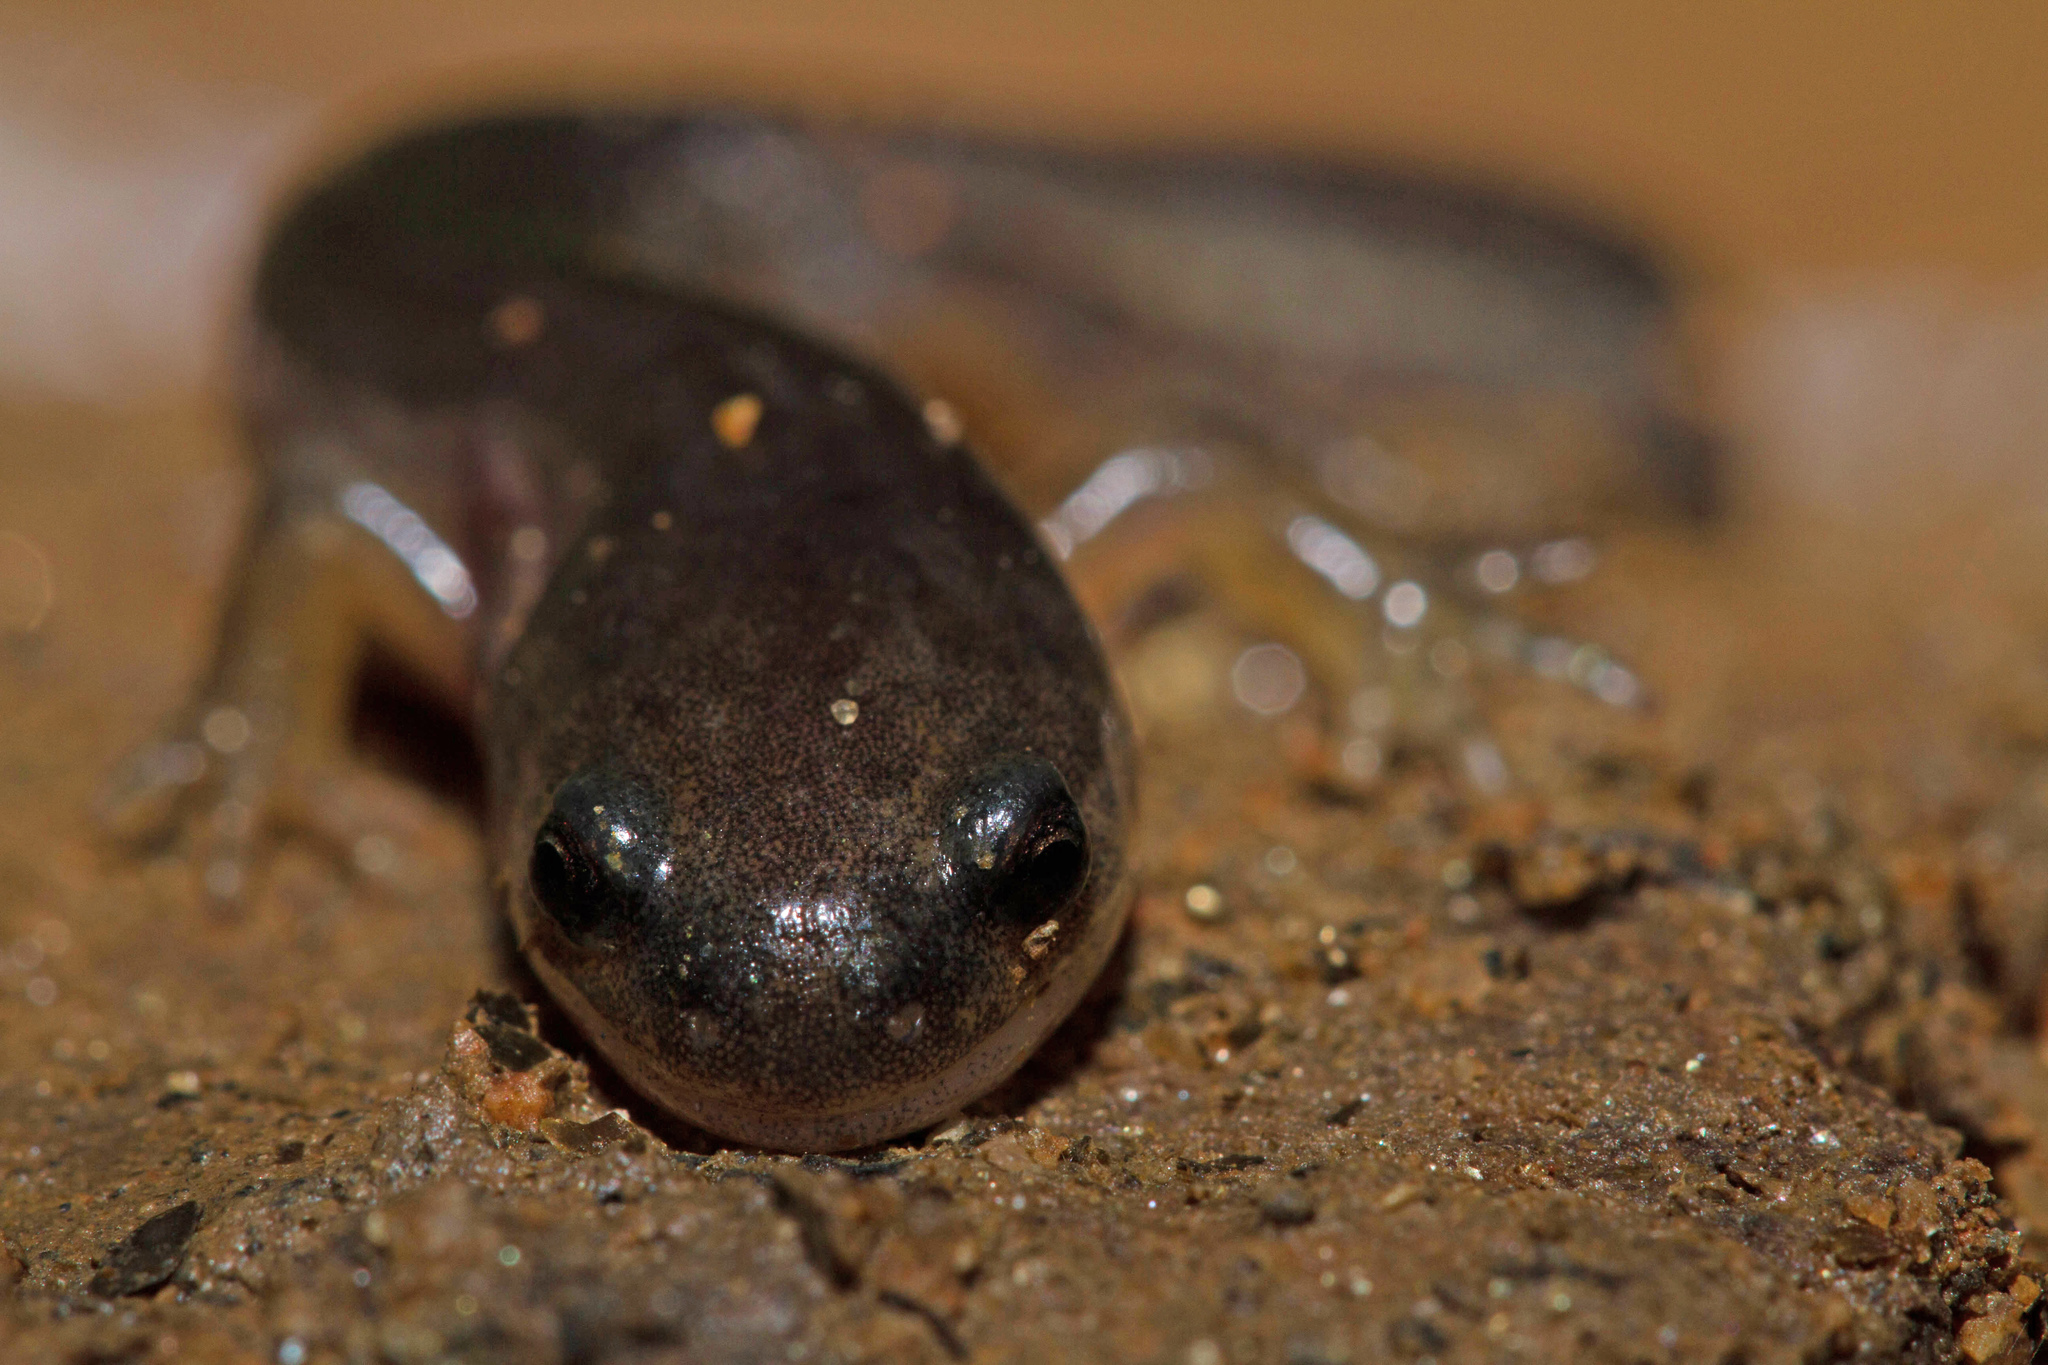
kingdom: Animalia
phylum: Chordata
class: Amphibia
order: Caudata
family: Ambystomatidae
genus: Ambystoma
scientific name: Ambystoma texanum
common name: Small-mouth salamander
